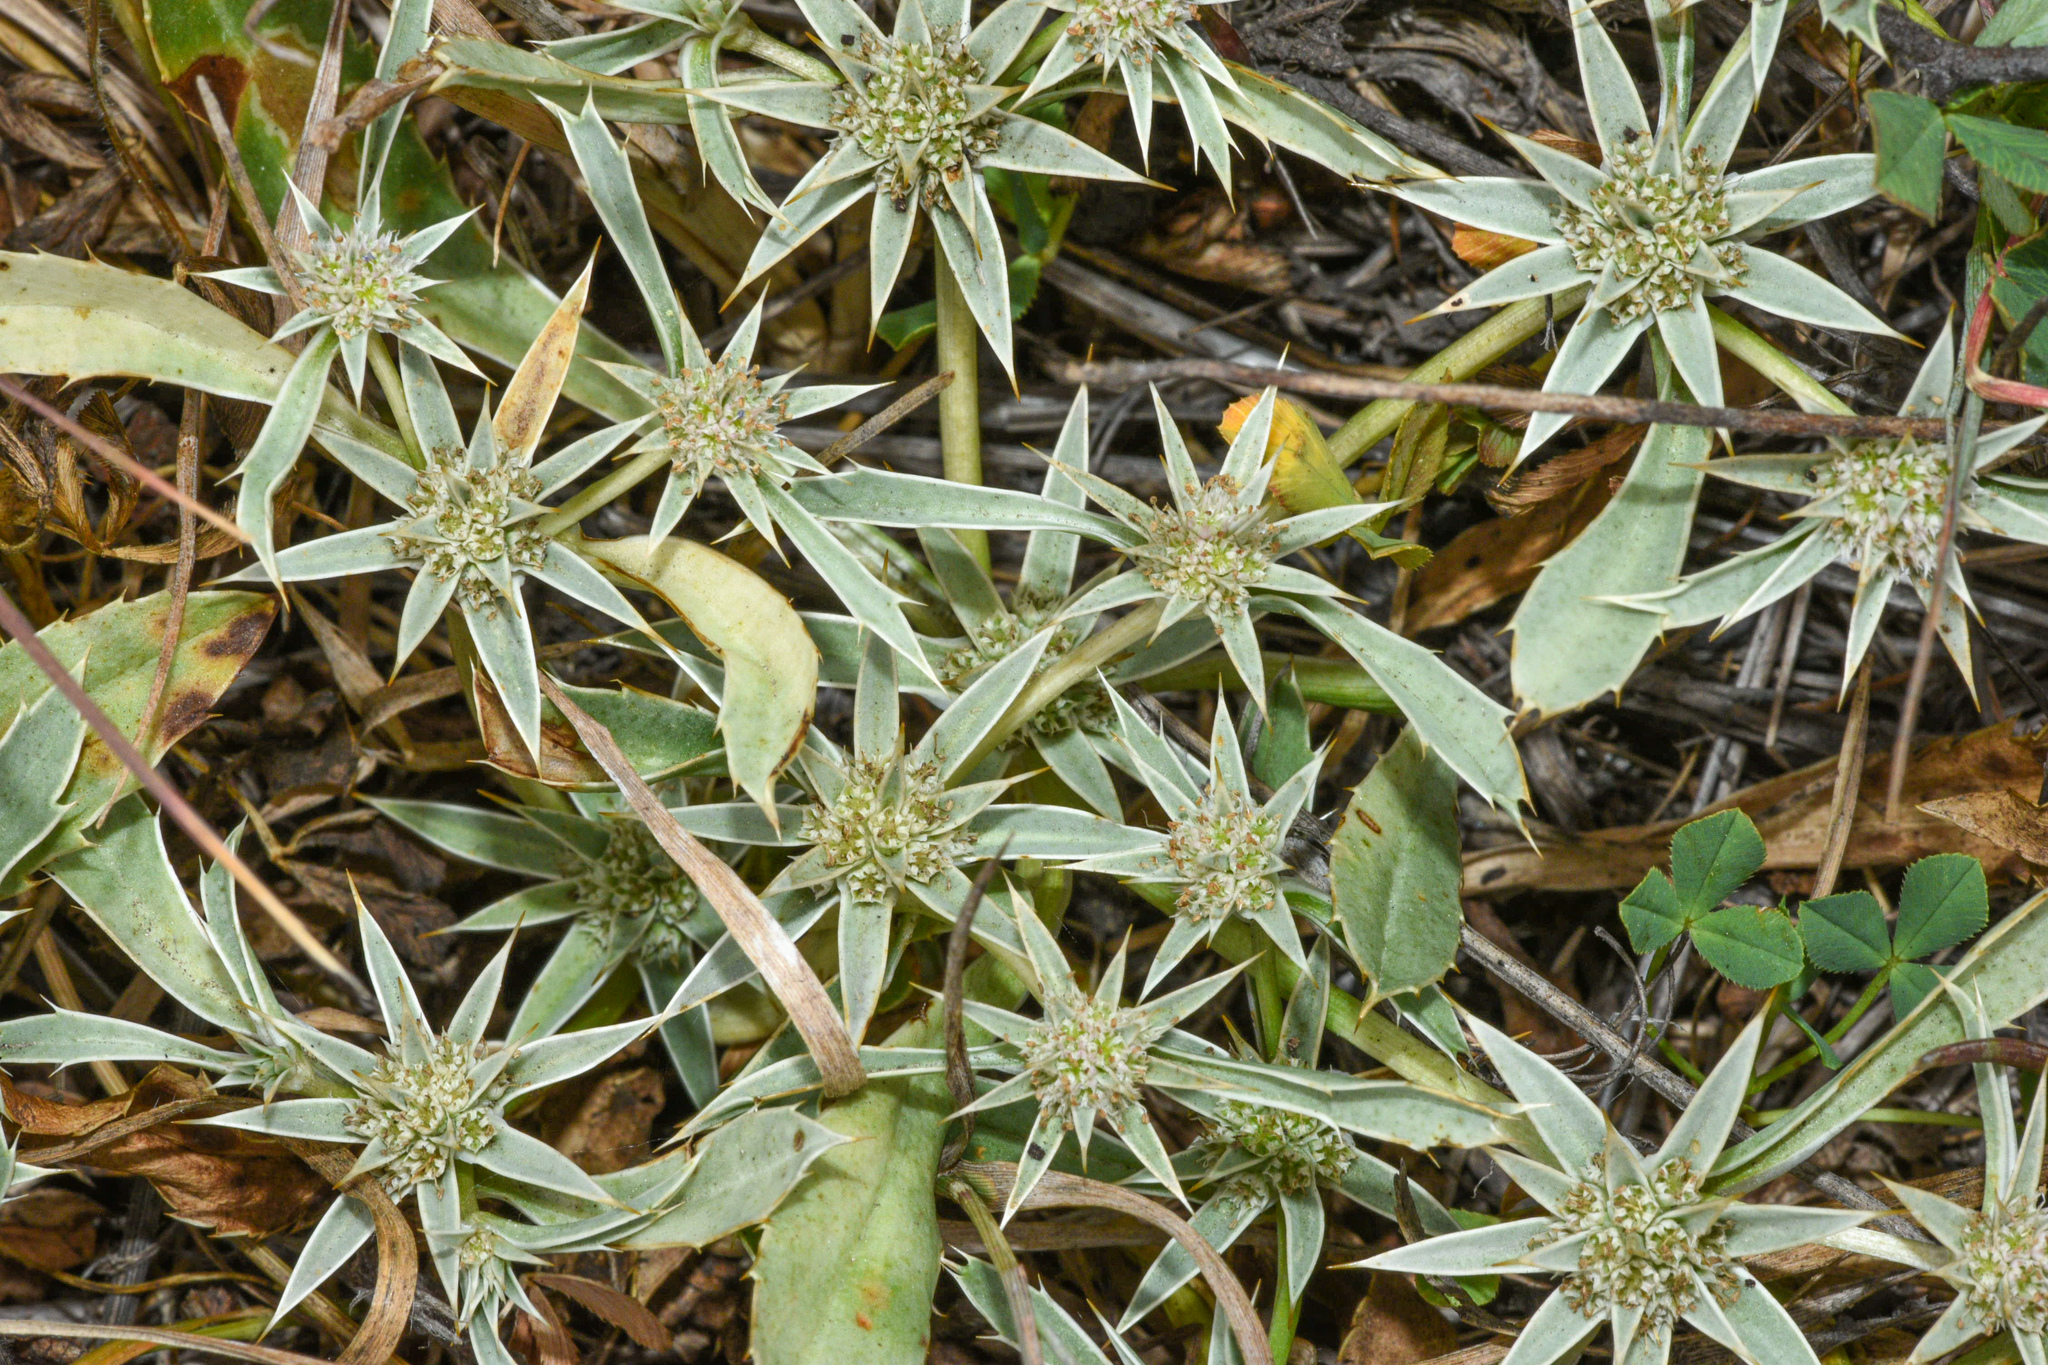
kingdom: Plantae
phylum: Tracheophyta
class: Magnoliopsida
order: Apiales
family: Apiaceae
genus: Eryngium
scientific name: Eryngium armatum
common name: Coyote thistle
